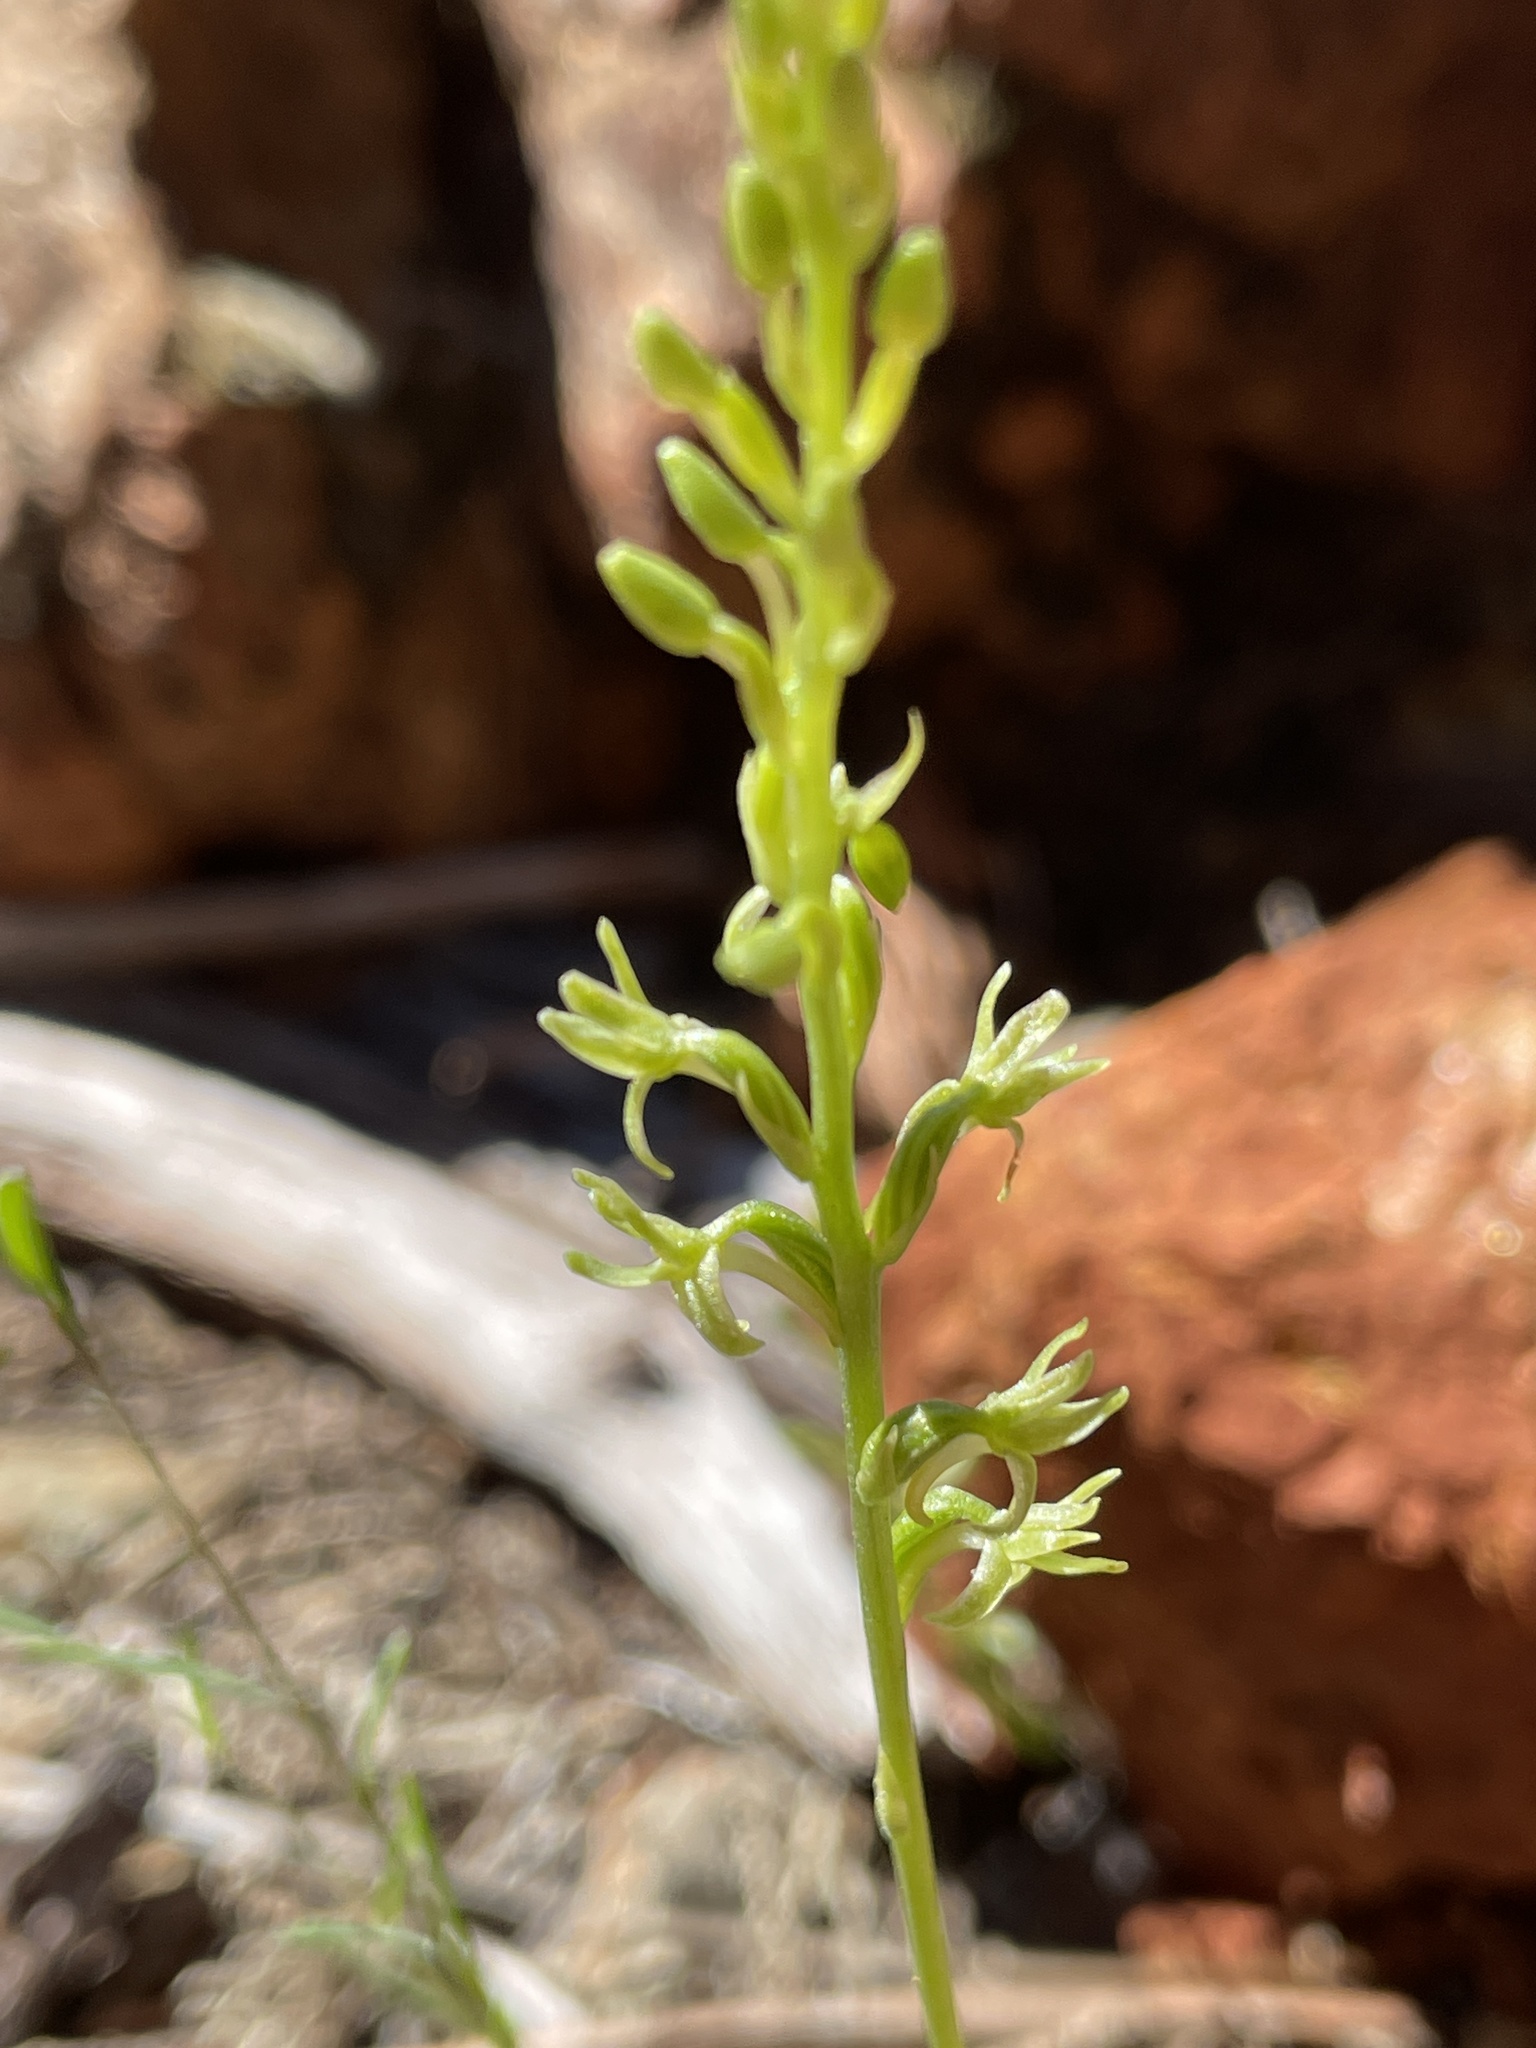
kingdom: Plantae
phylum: Tracheophyta
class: Liliopsida
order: Asparagales
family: Orchidaceae
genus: Platanthera
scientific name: Platanthera leptopetala
